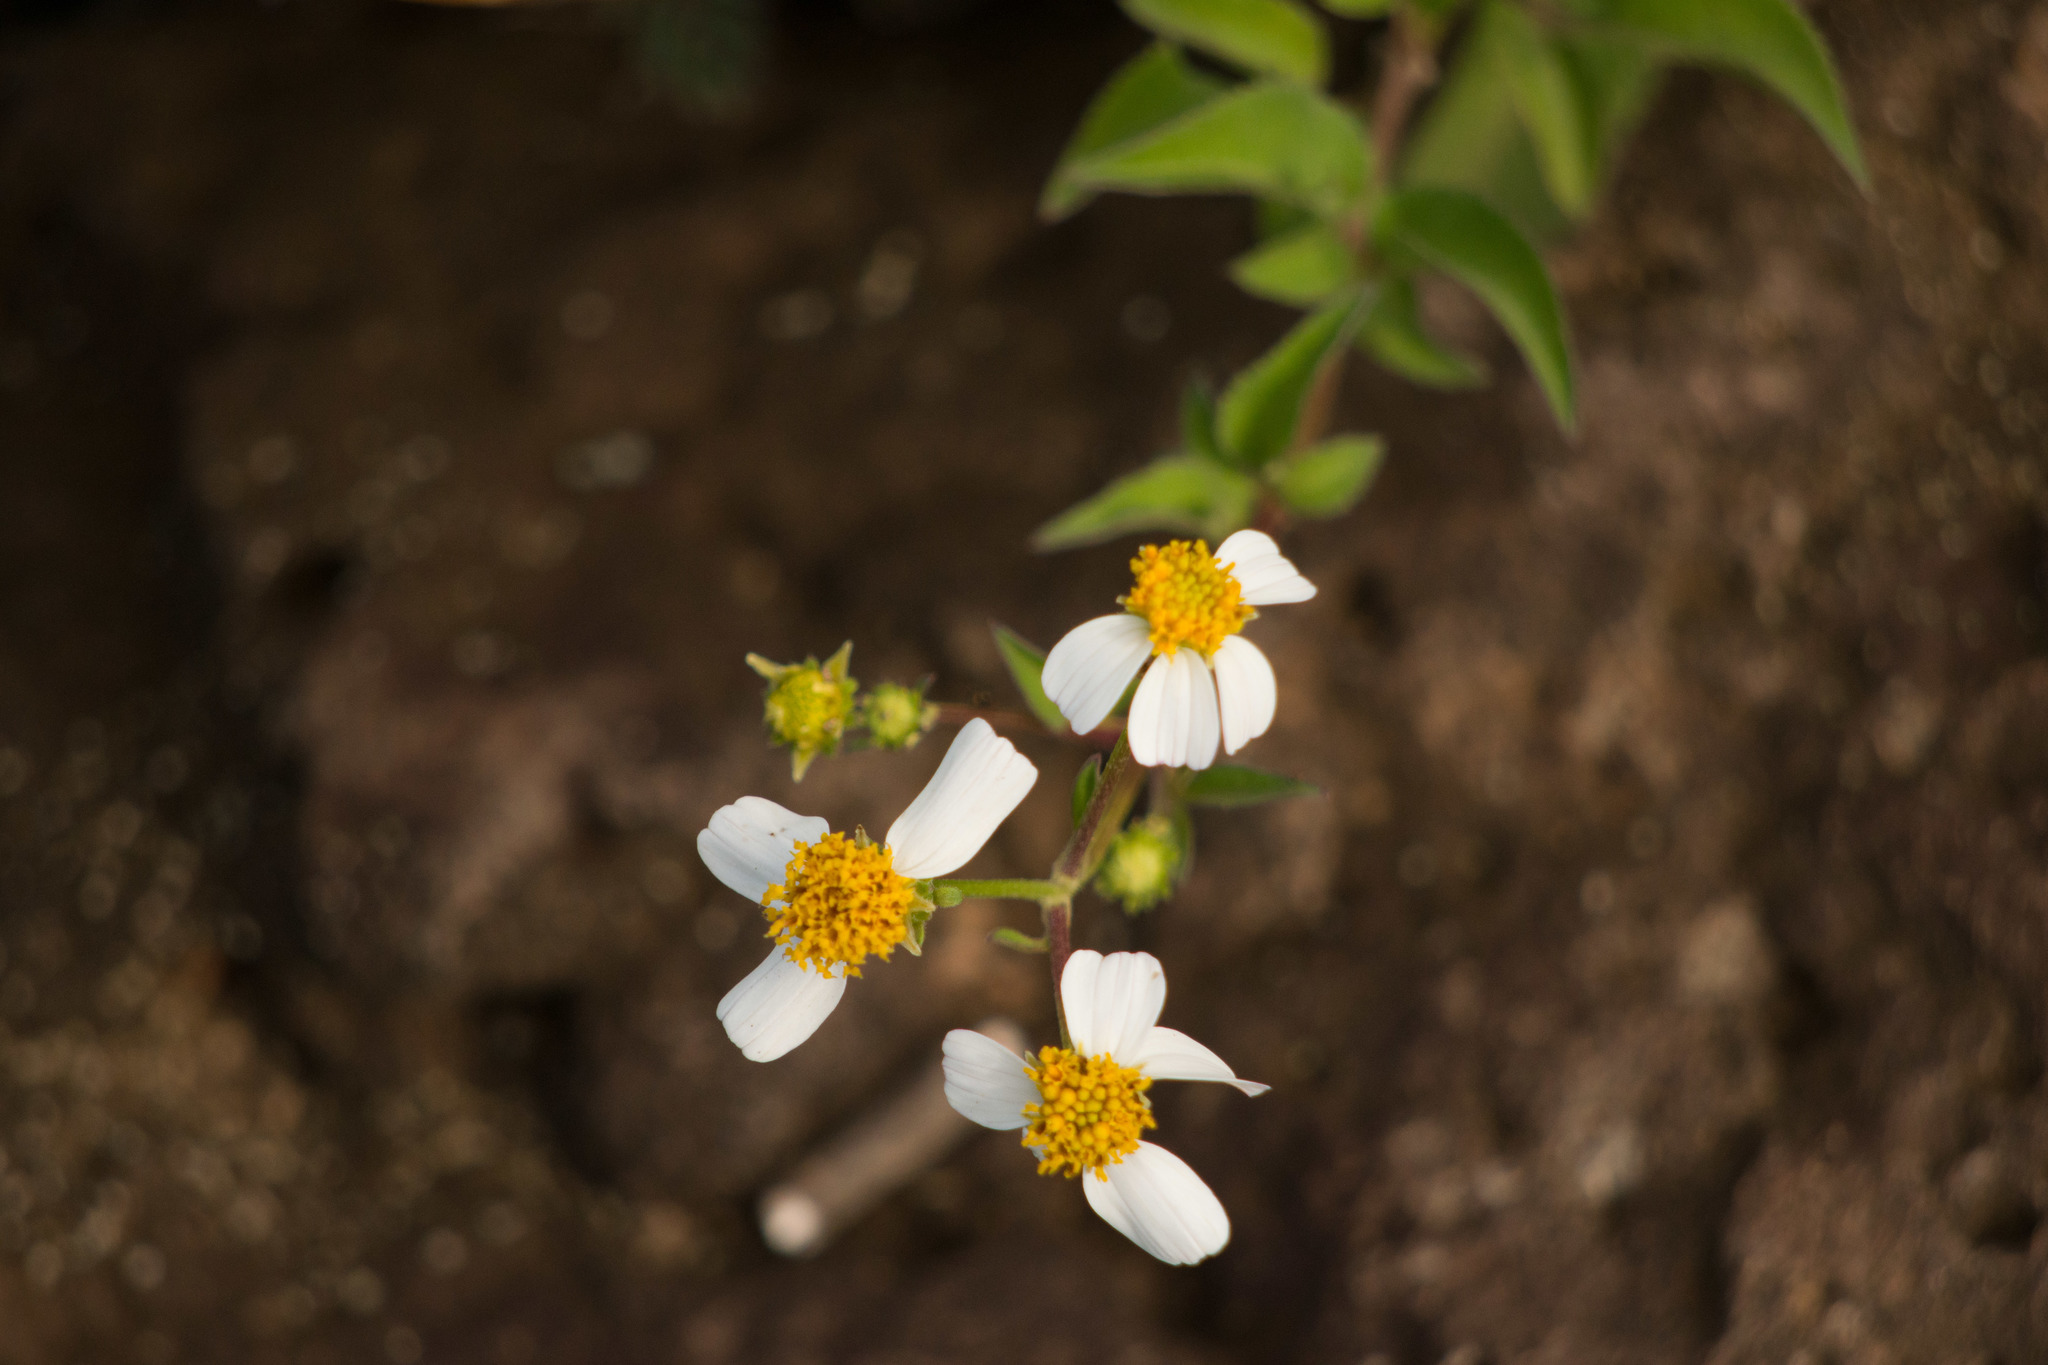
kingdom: Plantae
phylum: Tracheophyta
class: Magnoliopsida
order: Asterales
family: Asteraceae
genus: Bidens
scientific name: Bidens alba
